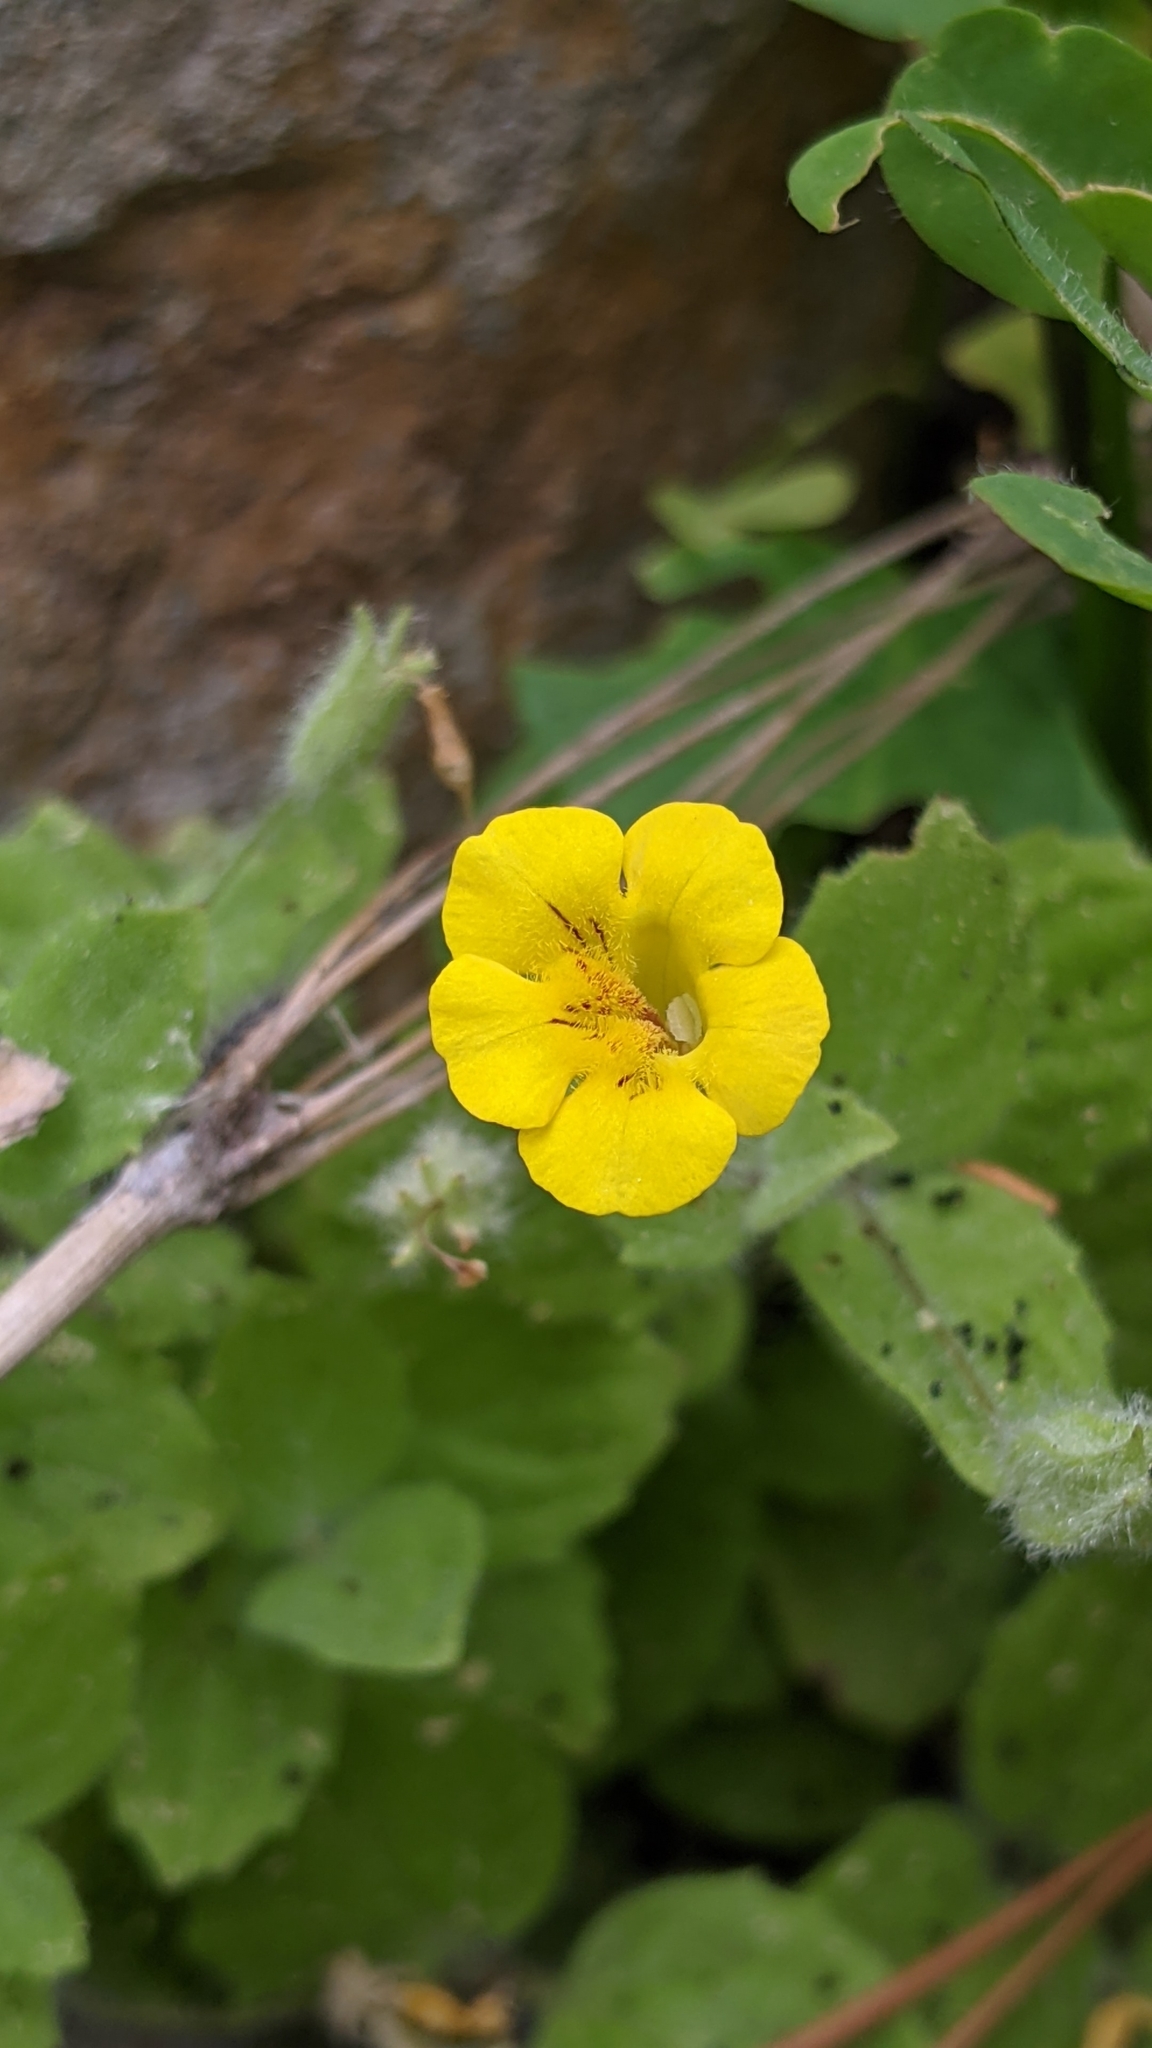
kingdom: Plantae
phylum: Tracheophyta
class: Magnoliopsida
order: Lamiales
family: Phrymaceae
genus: Erythranthe
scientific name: Erythranthe moschata
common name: Muskflower
